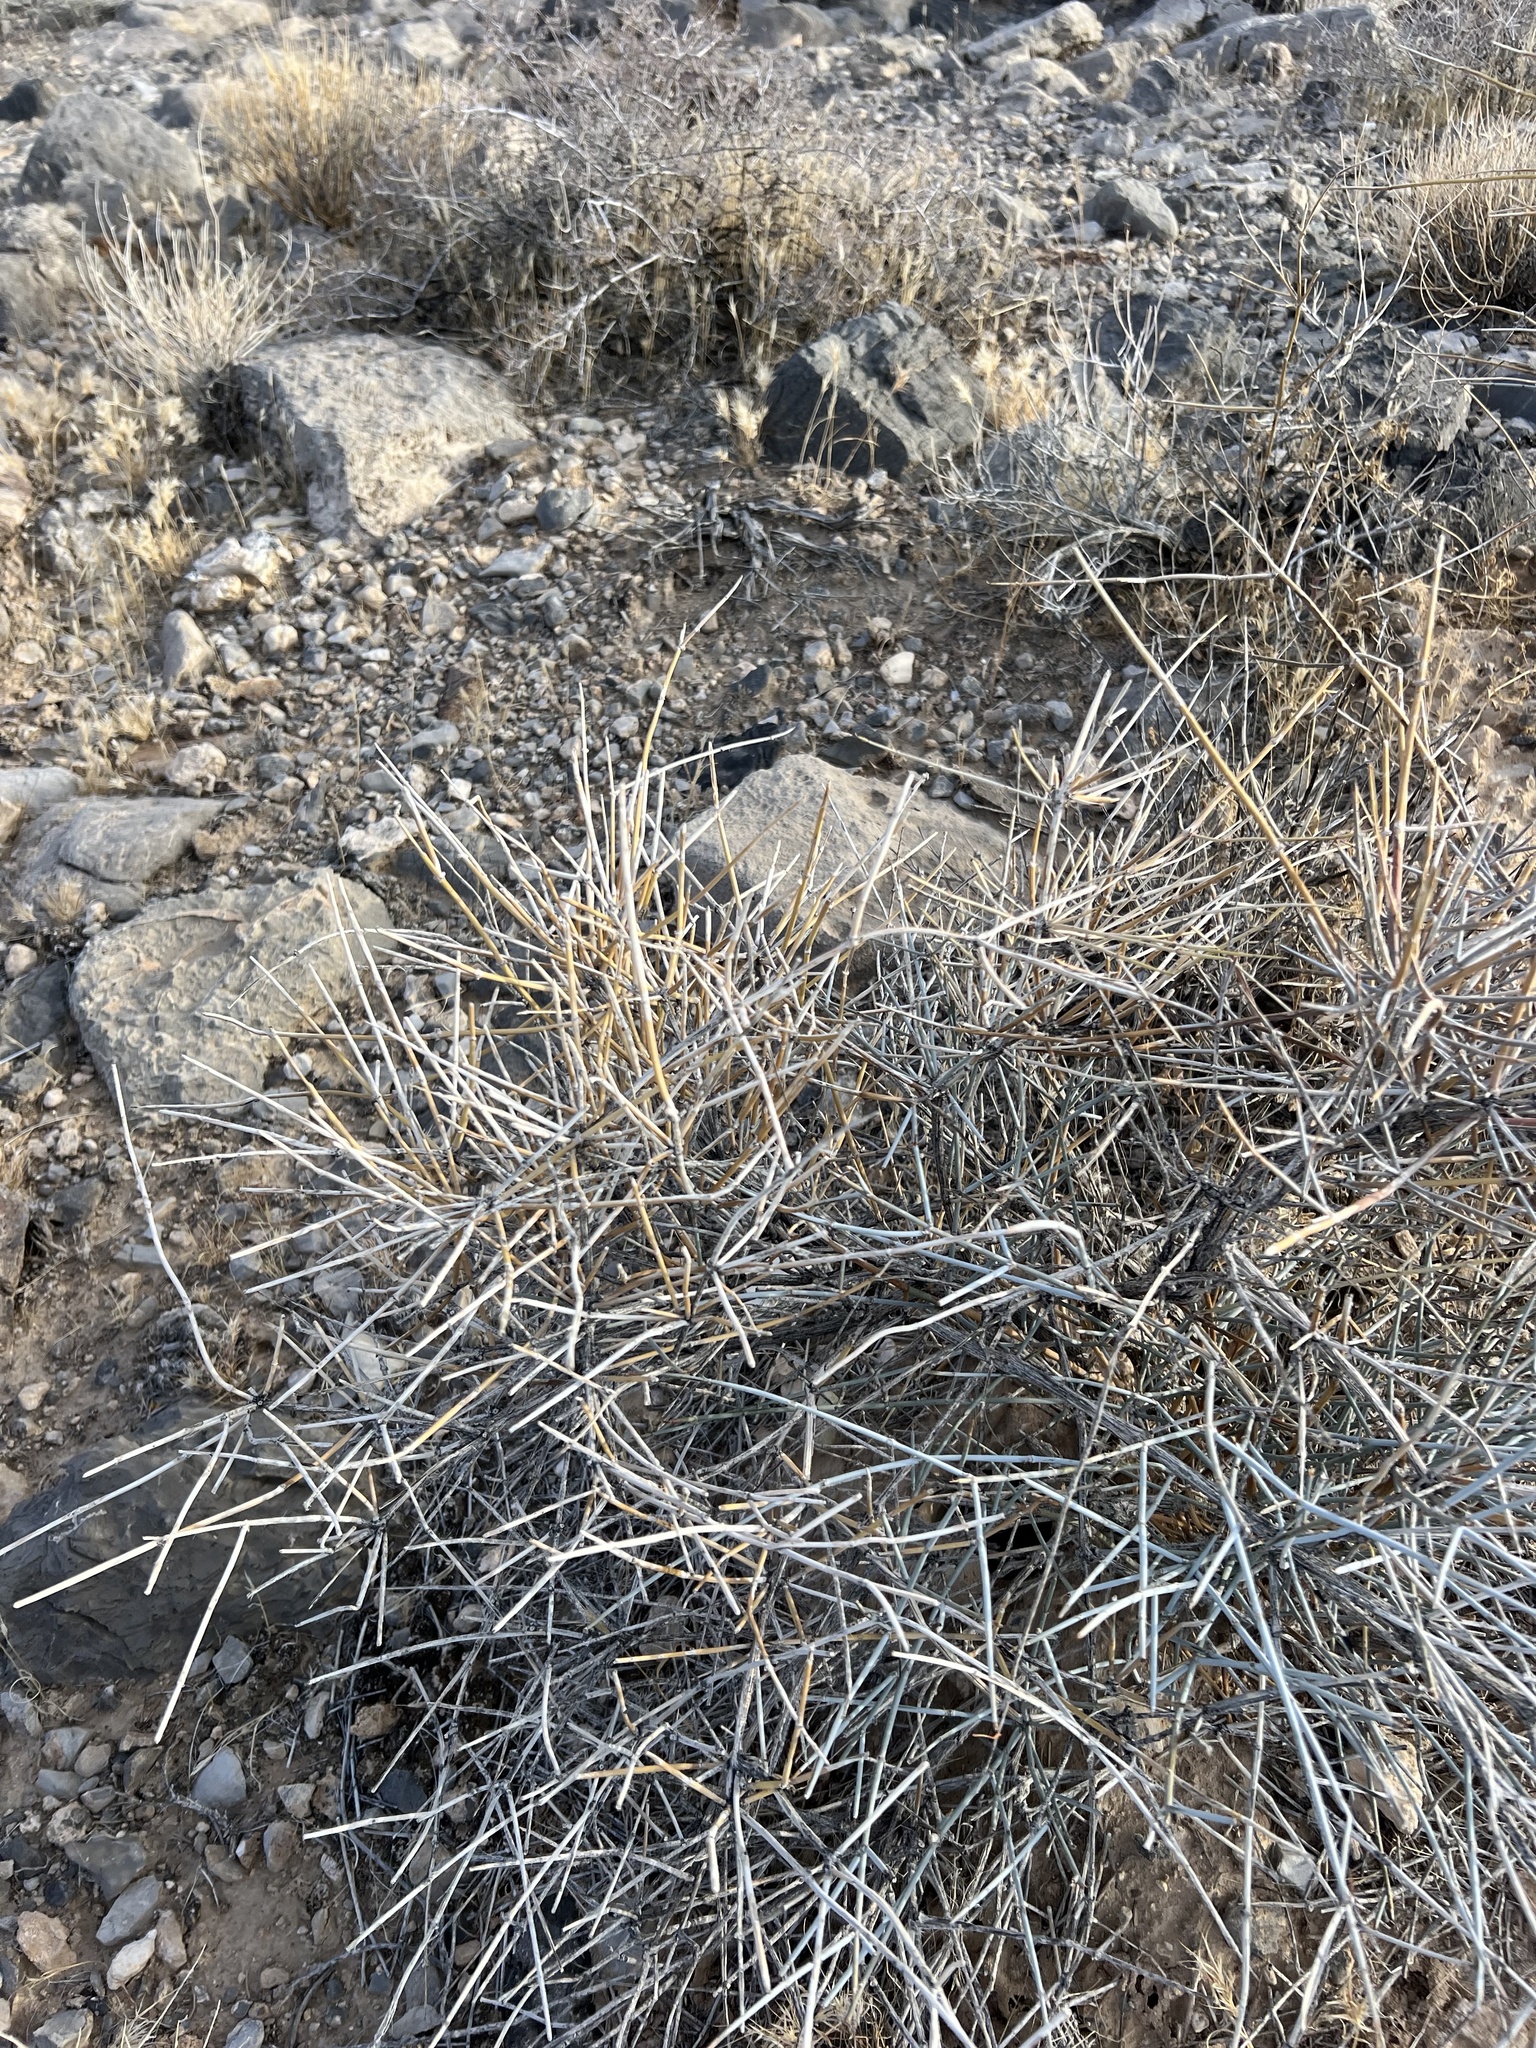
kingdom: Plantae
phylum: Tracheophyta
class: Gnetopsida
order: Ephedrales
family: Ephedraceae
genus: Ephedra
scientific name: Ephedra nevadensis
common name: Gray ephedra
